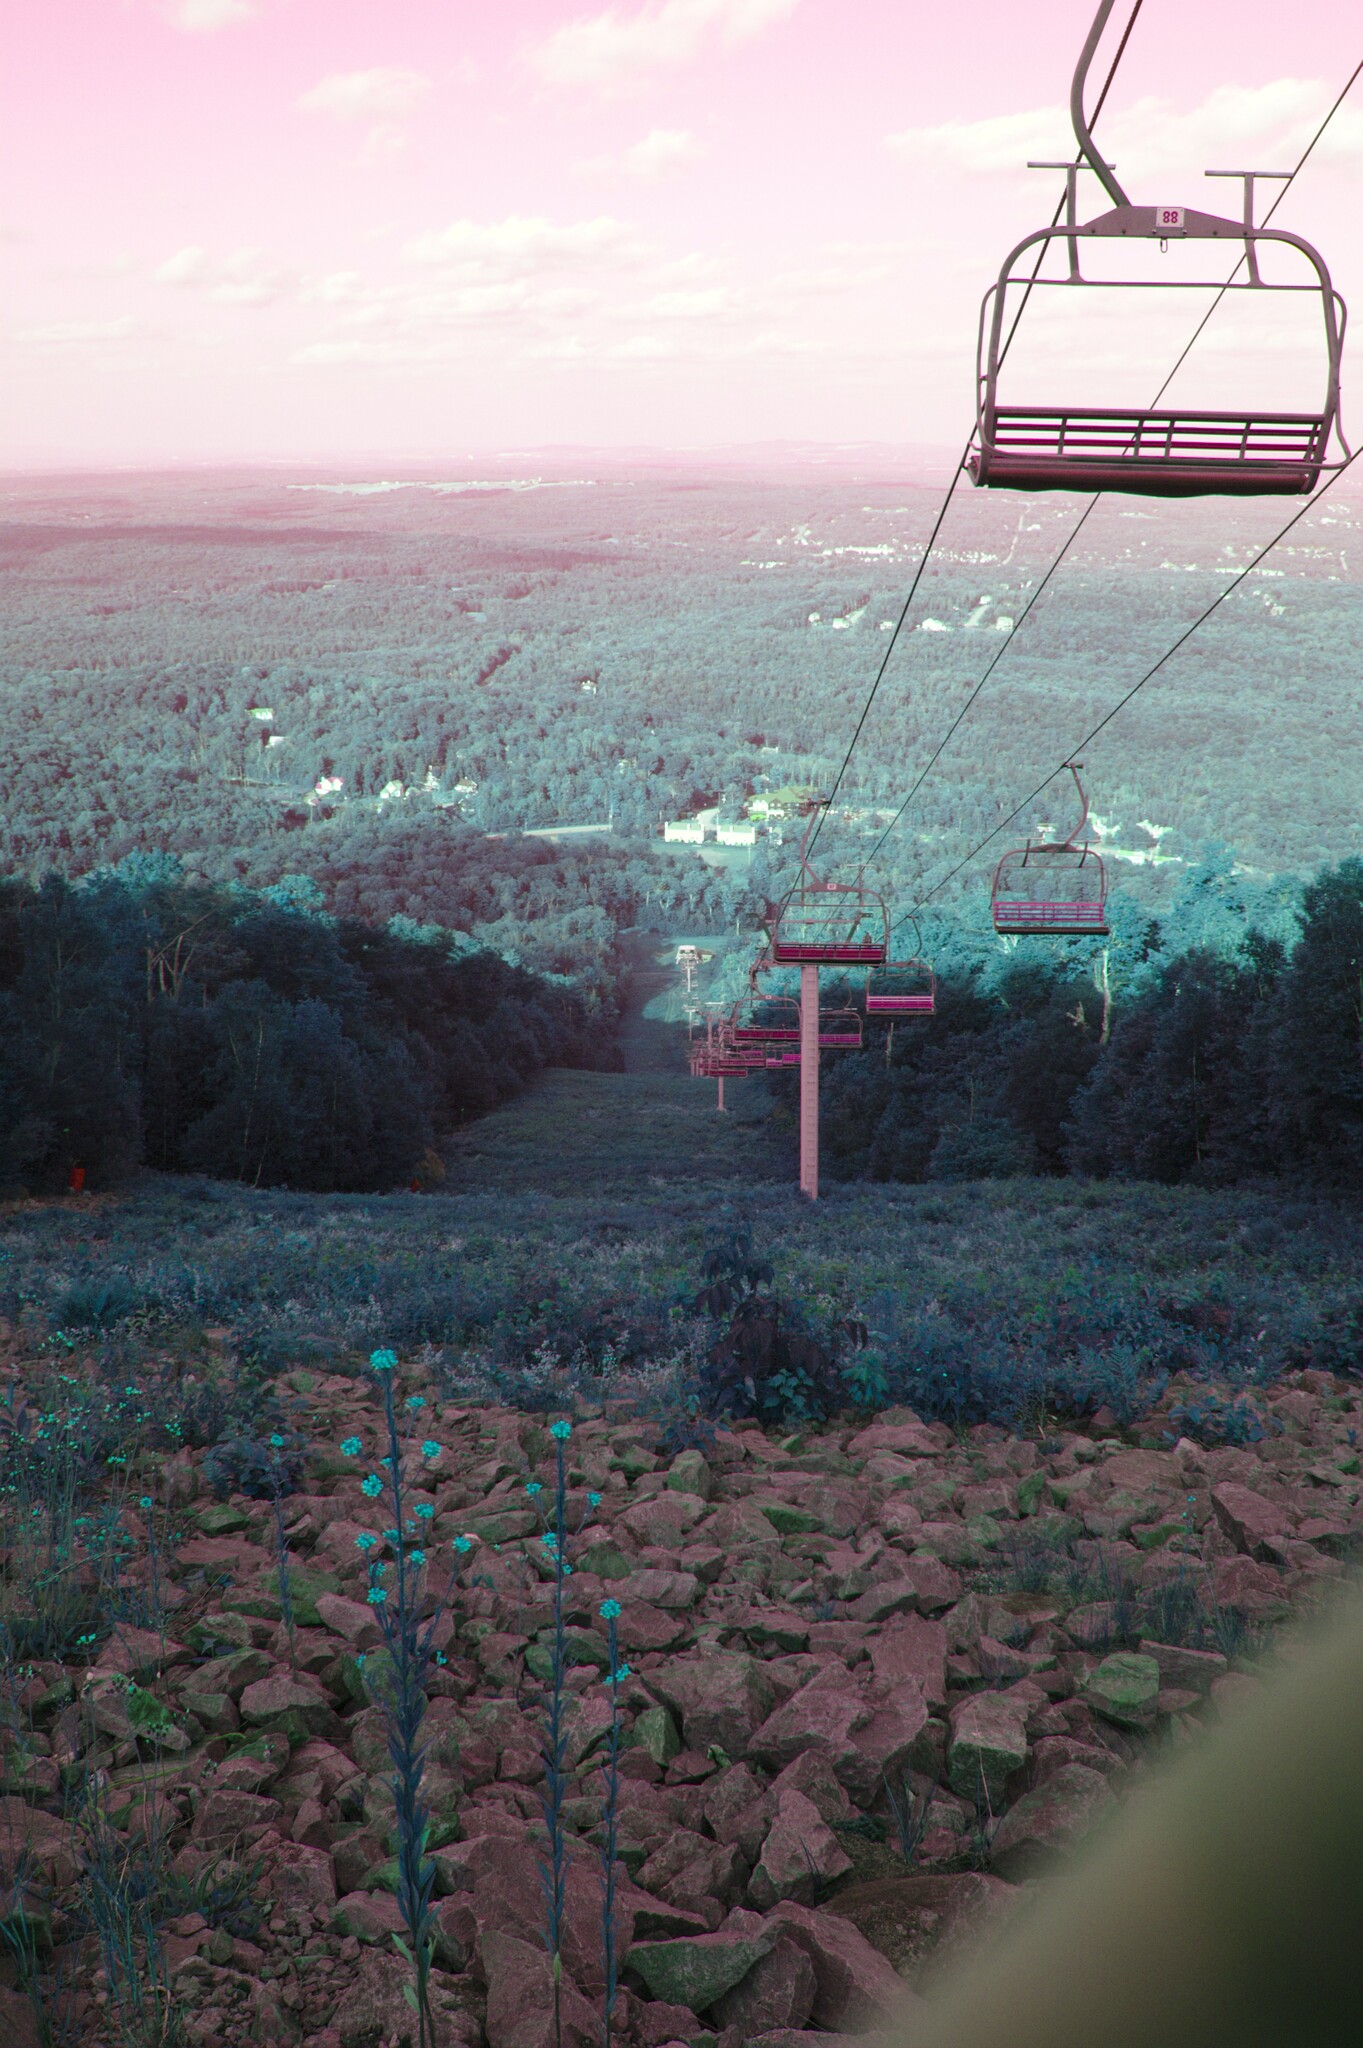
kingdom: Plantae
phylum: Tracheophyta
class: Magnoliopsida
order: Brassicales
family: Brassicaceae
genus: Erysimum
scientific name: Erysimum hieraciifolium
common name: European wallflower
